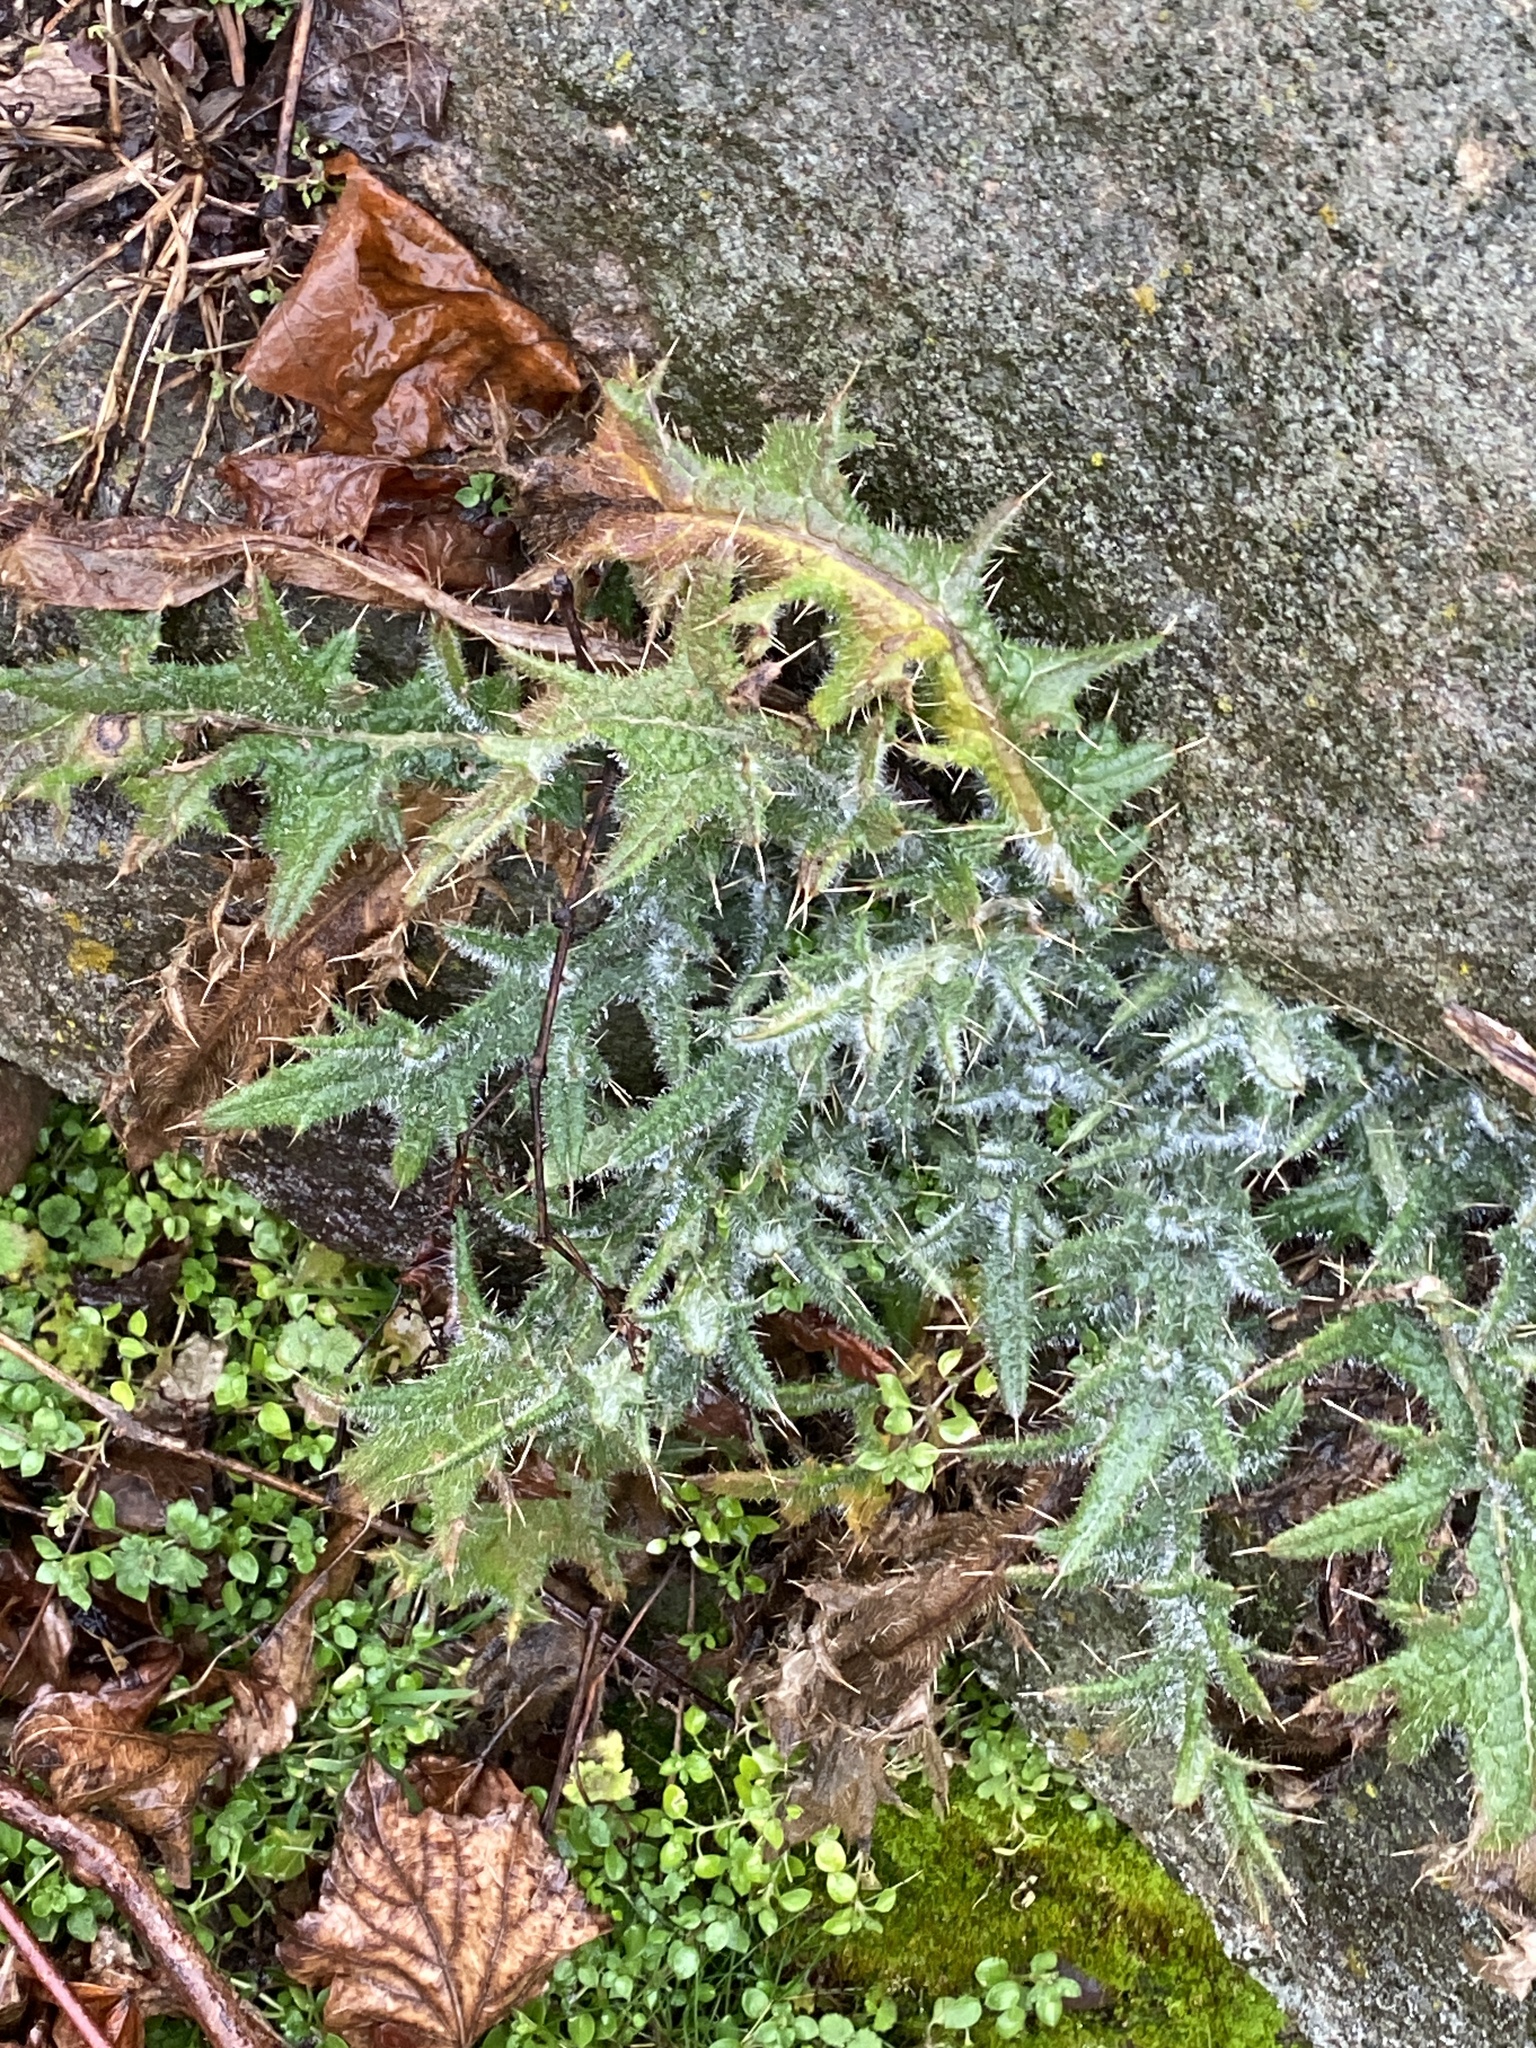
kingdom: Plantae
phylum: Tracheophyta
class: Magnoliopsida
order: Asterales
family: Asteraceae
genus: Cirsium
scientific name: Cirsium vulgare
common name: Bull thistle
